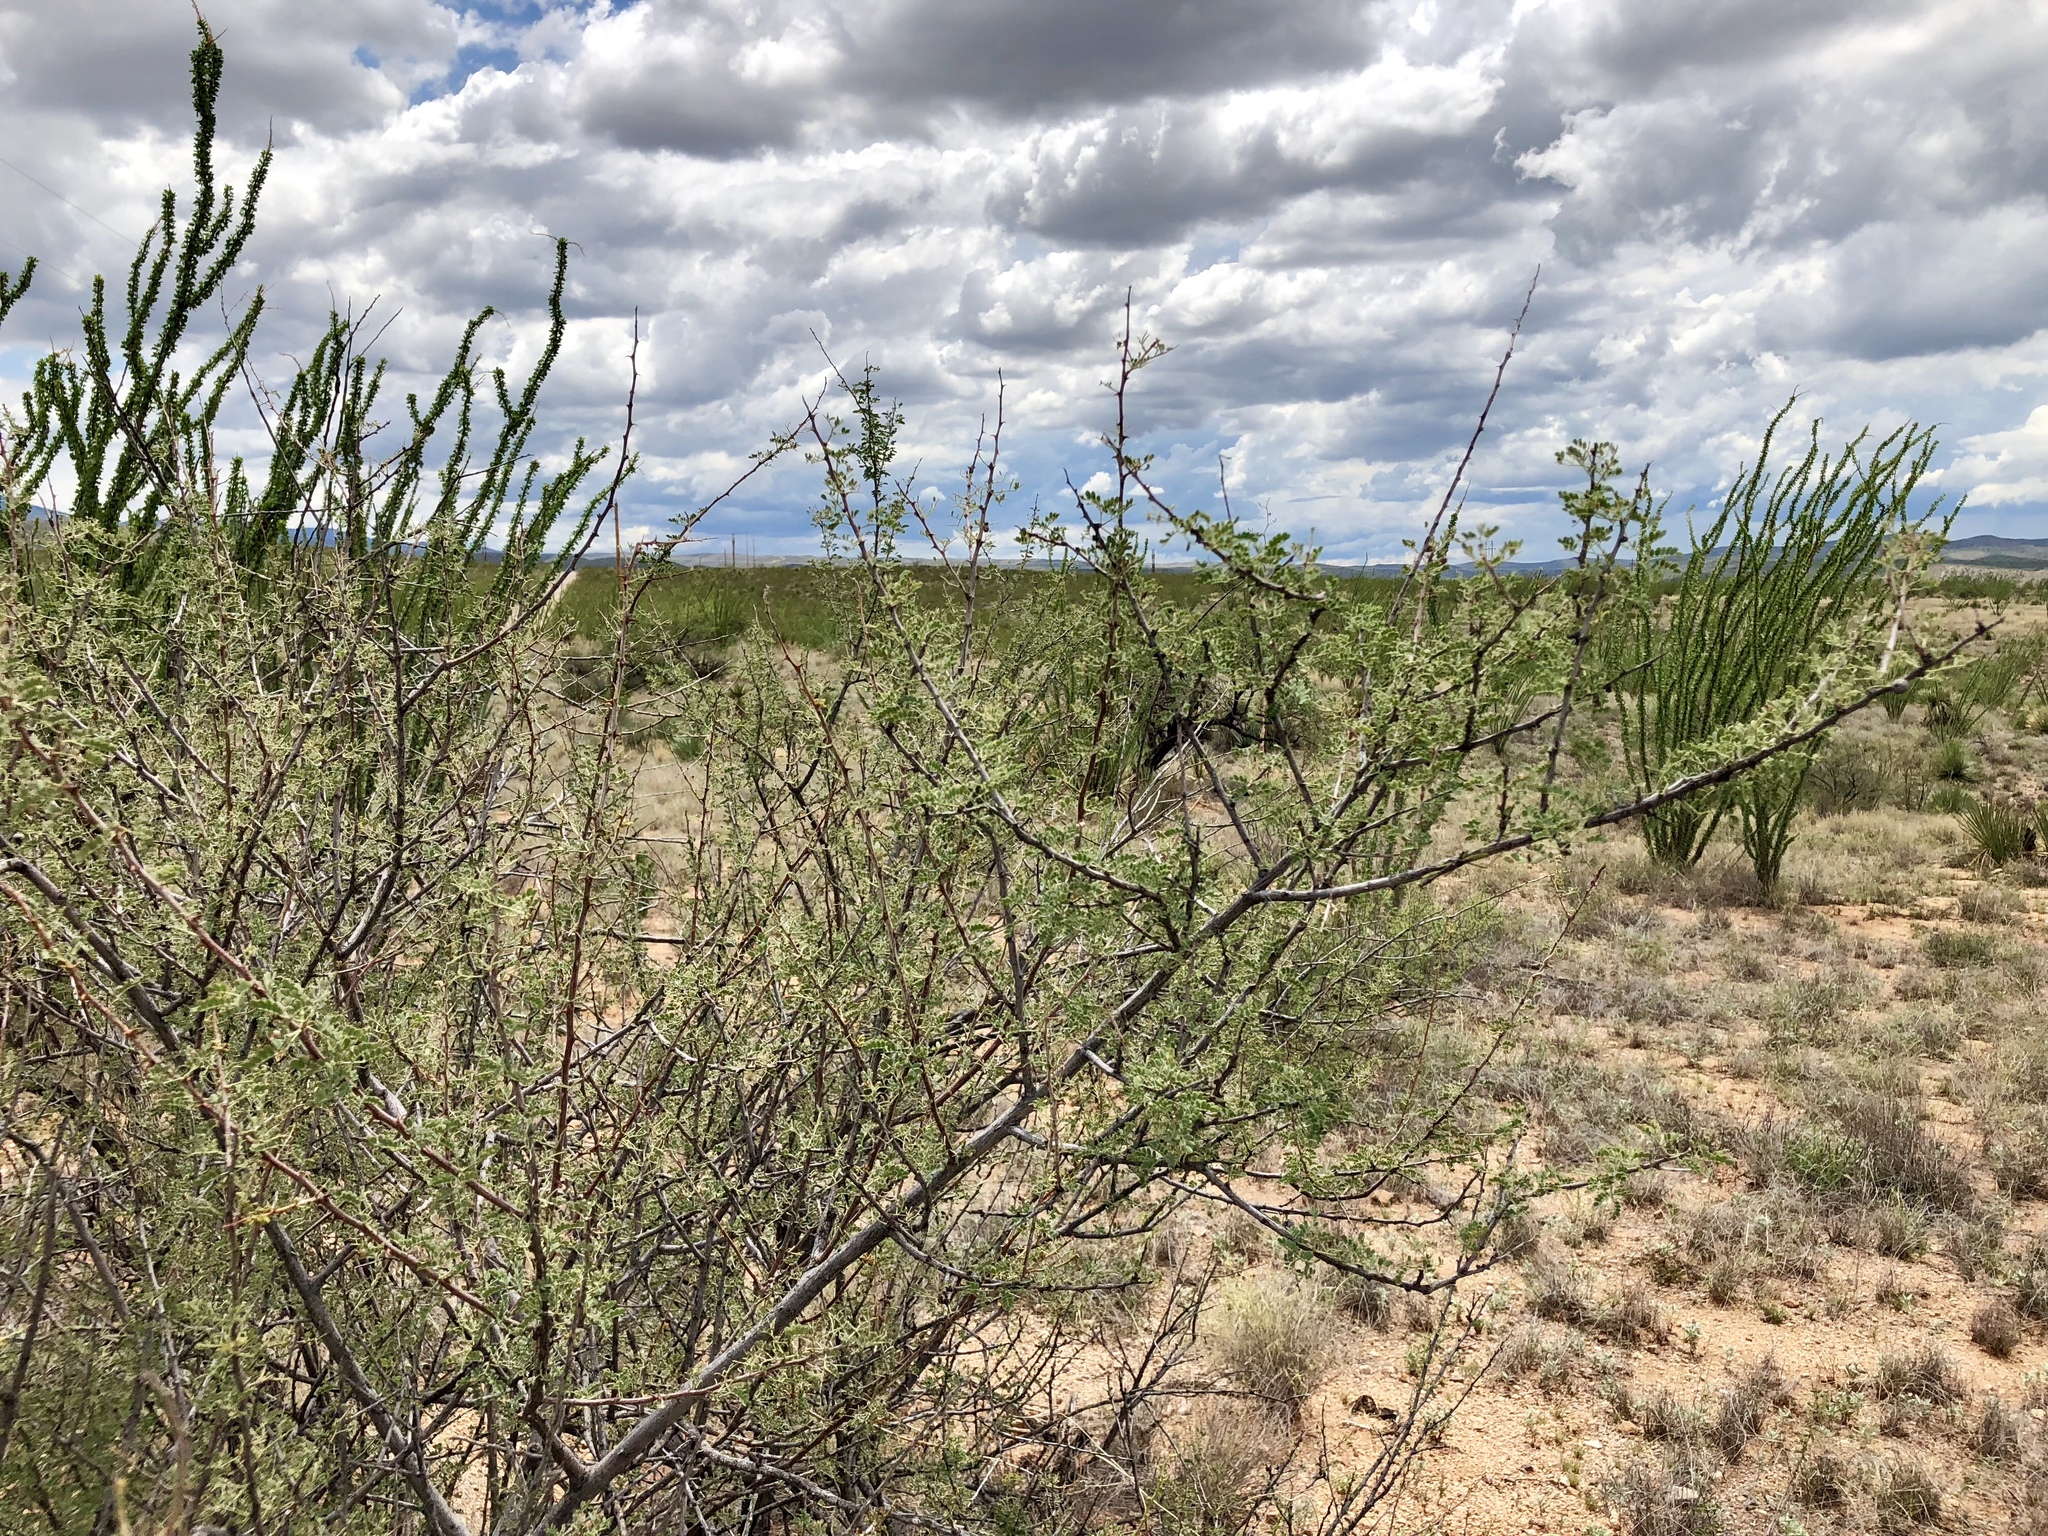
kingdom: Plantae
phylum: Tracheophyta
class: Magnoliopsida
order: Fabales
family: Fabaceae
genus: Vachellia
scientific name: Vachellia constricta
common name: Mescat acacia
